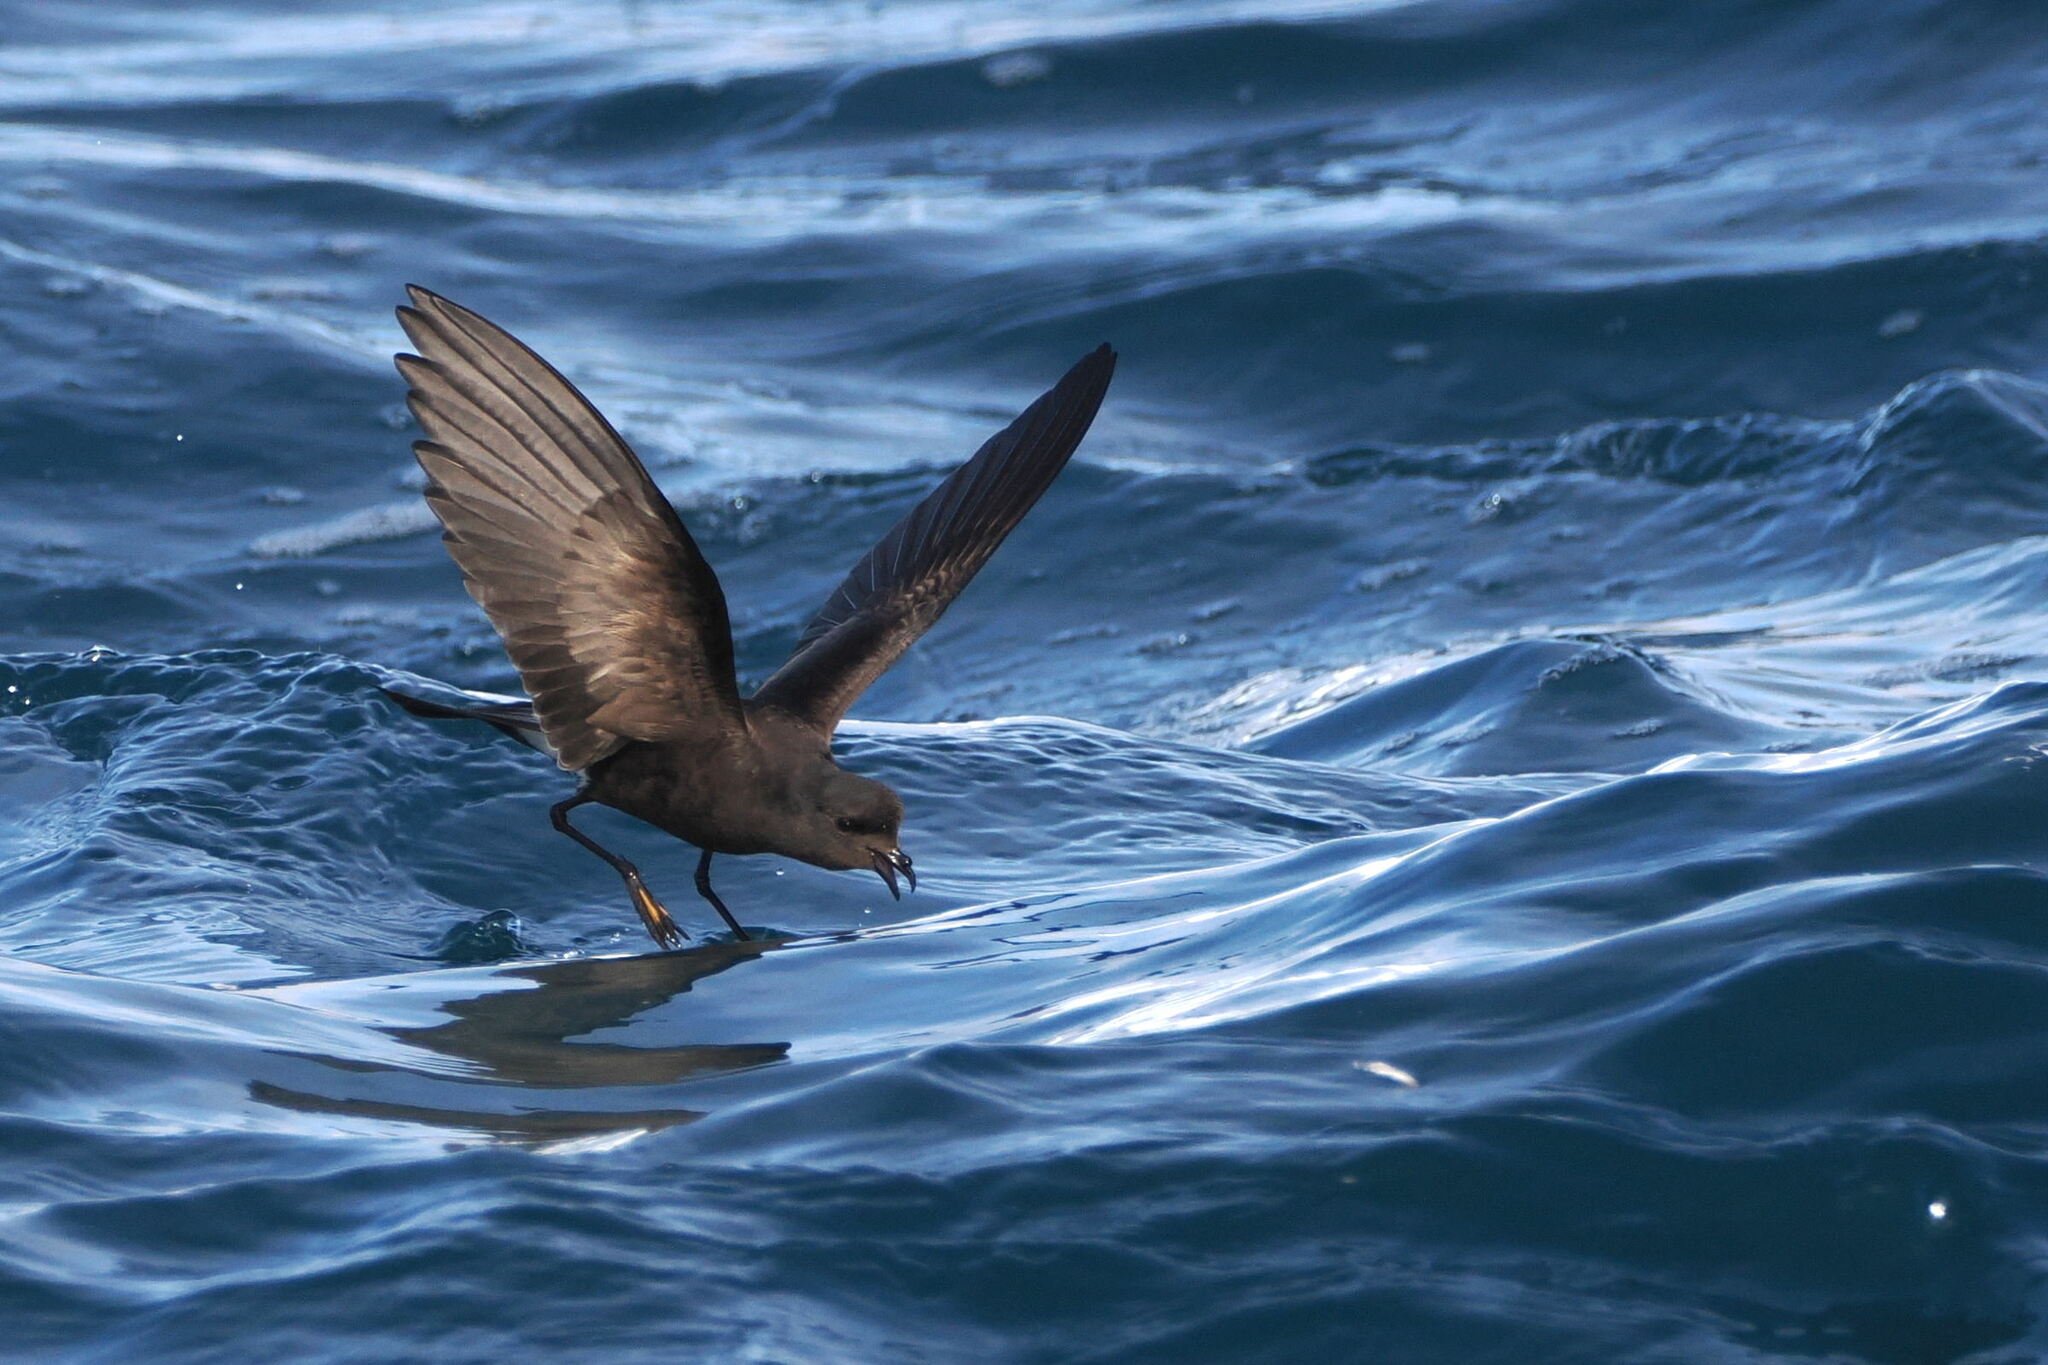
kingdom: Animalia
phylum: Chordata
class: Aves
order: Procellariiformes
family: Hydrobatidae
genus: Oceanites
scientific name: Oceanites oceanicus
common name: Wilson's storm petrel
